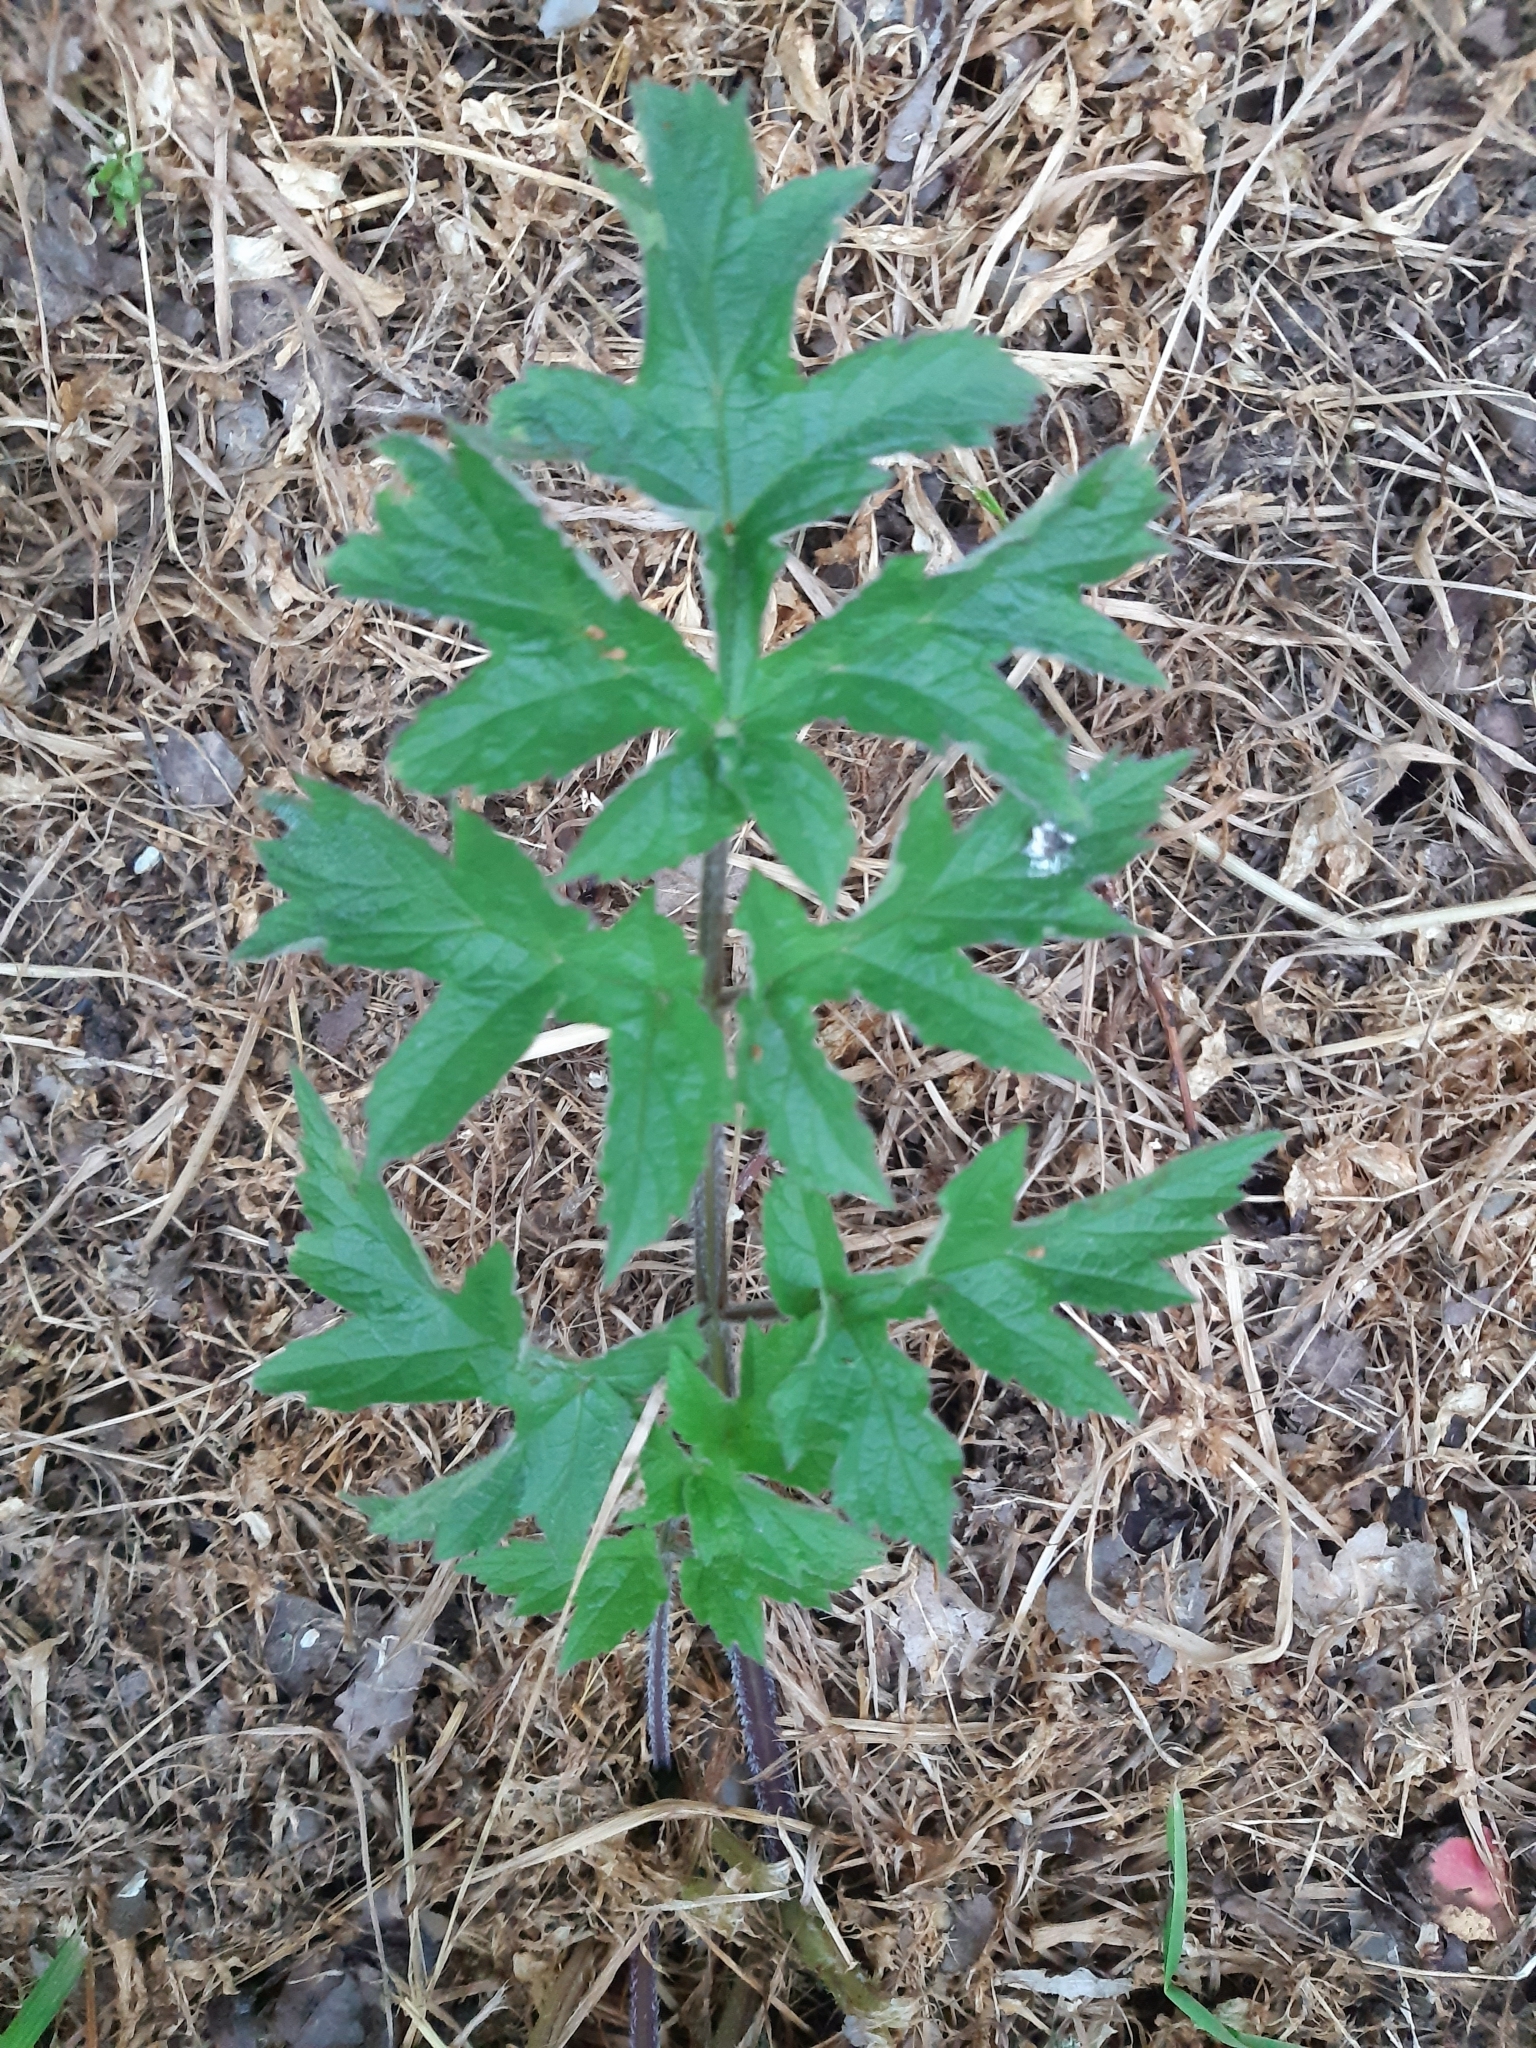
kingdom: Plantae
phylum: Tracheophyta
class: Magnoliopsida
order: Apiales
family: Apiaceae
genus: Heracleum
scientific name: Heracleum sphondylium
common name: Hogweed
